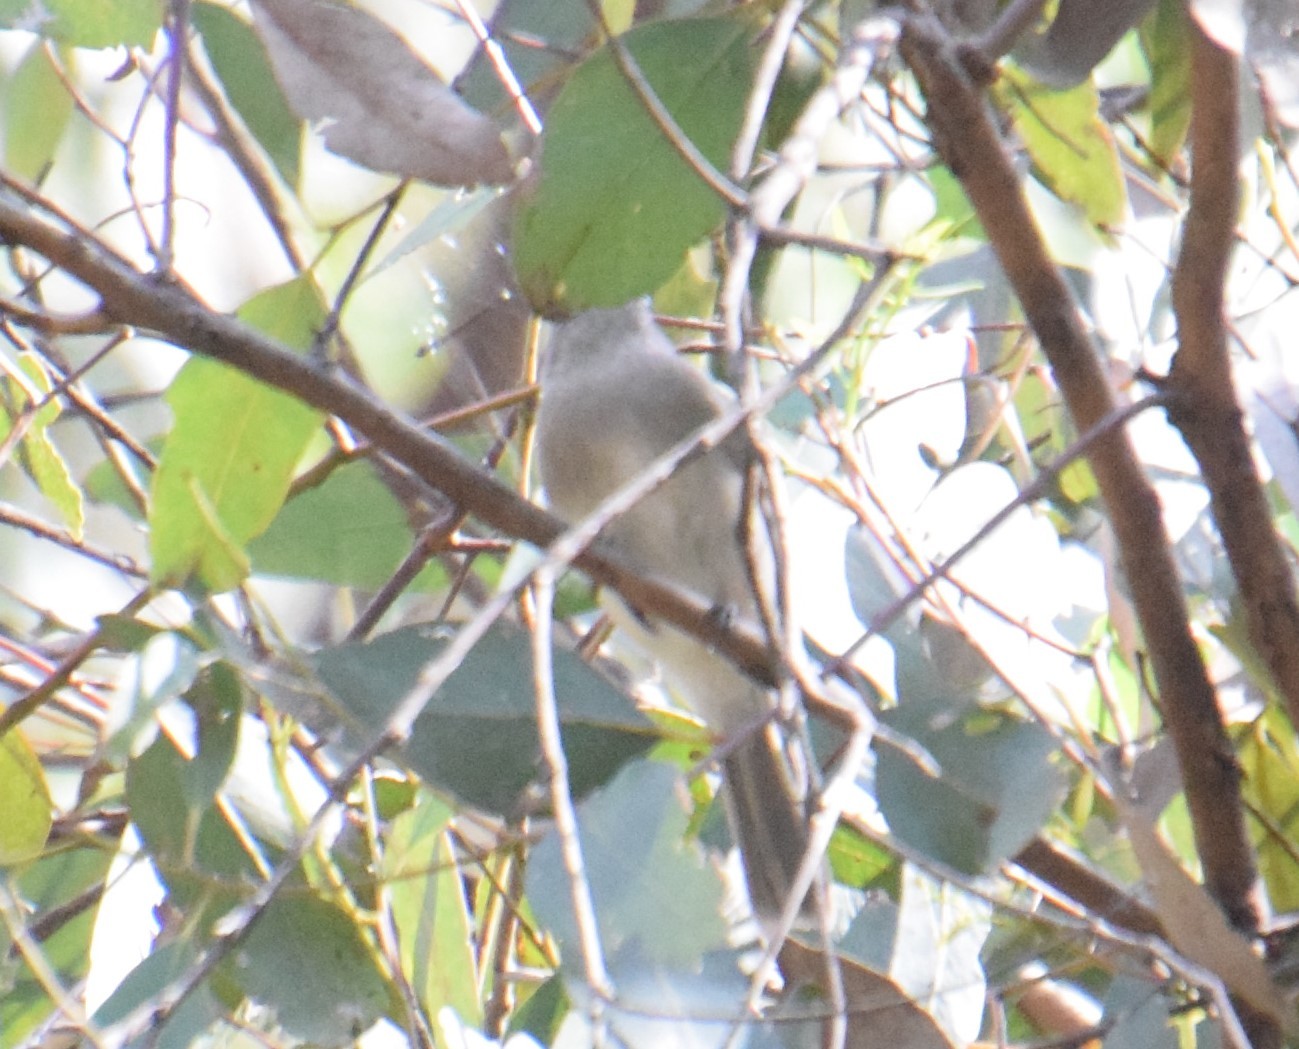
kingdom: Animalia
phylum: Chordata
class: Aves
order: Passeriformes
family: Pachycephalidae
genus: Pachycephala
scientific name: Pachycephala pectoralis
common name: Australian golden whistler
